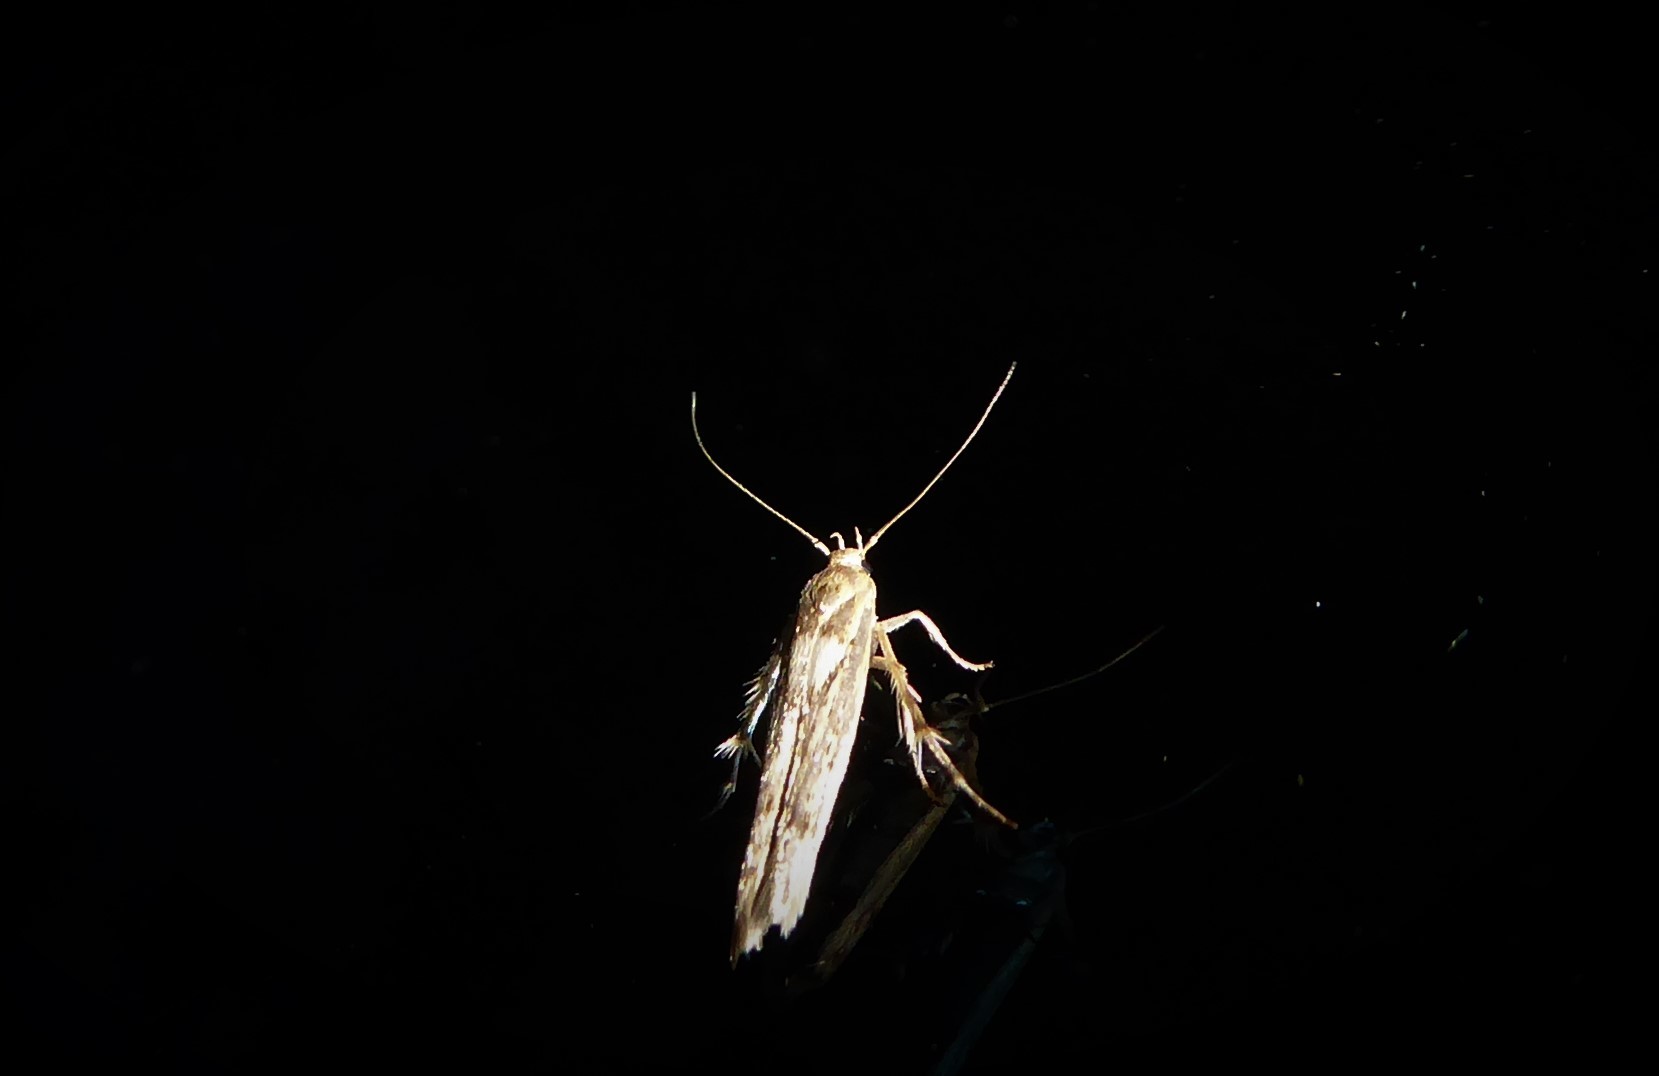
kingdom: Animalia
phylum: Arthropoda
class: Insecta
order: Lepidoptera
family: Stathmopodidae
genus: Stathmopoda
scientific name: Stathmopoda plumbiflua
